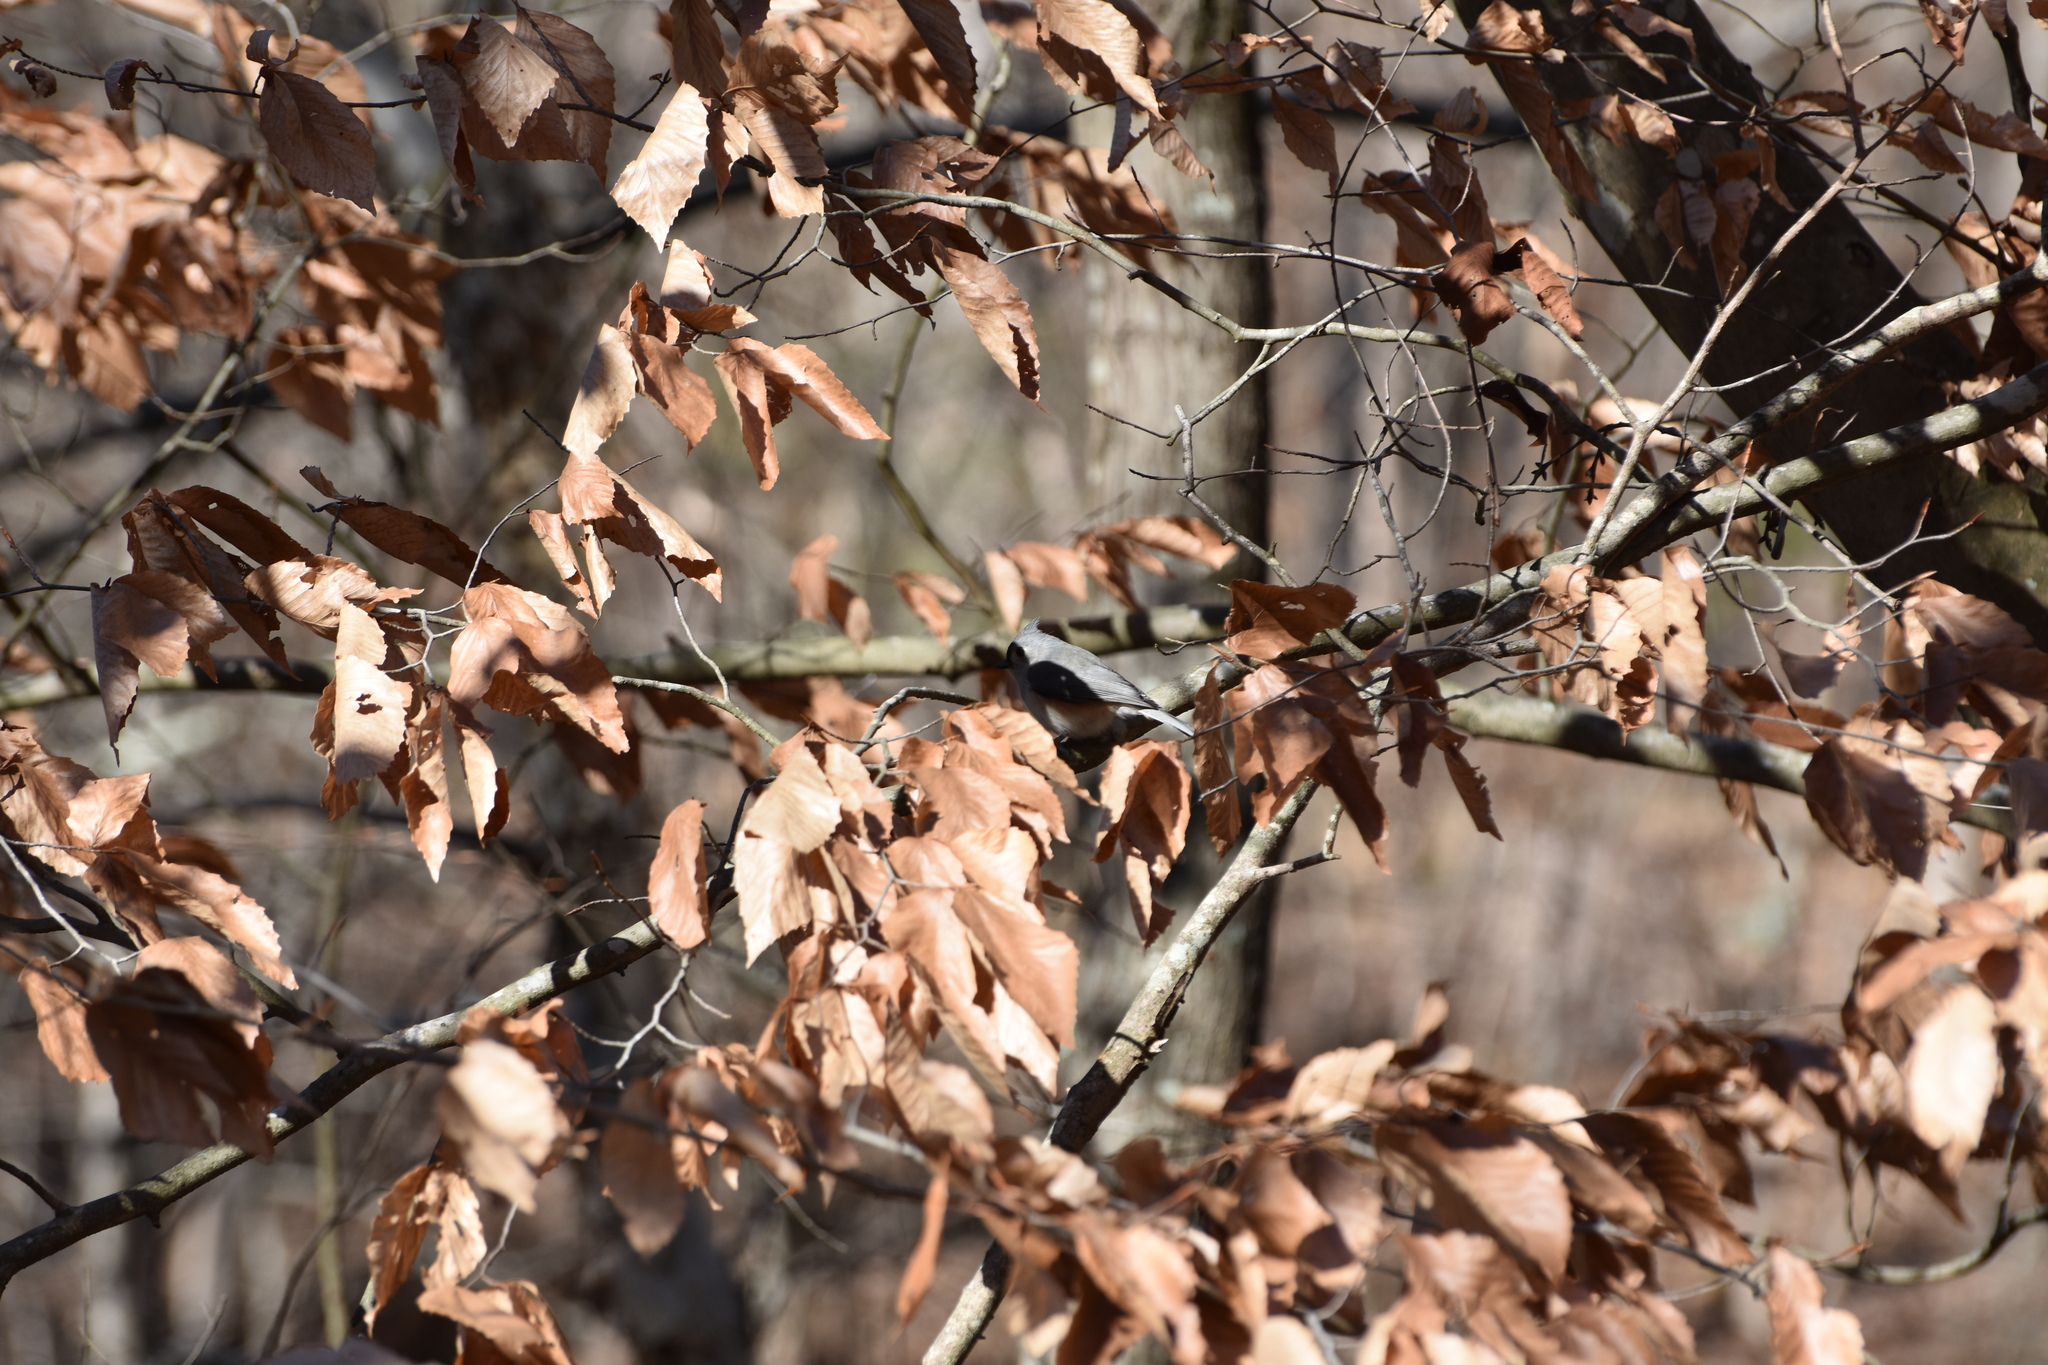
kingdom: Animalia
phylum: Chordata
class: Aves
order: Passeriformes
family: Paridae
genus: Baeolophus
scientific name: Baeolophus bicolor
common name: Tufted titmouse
